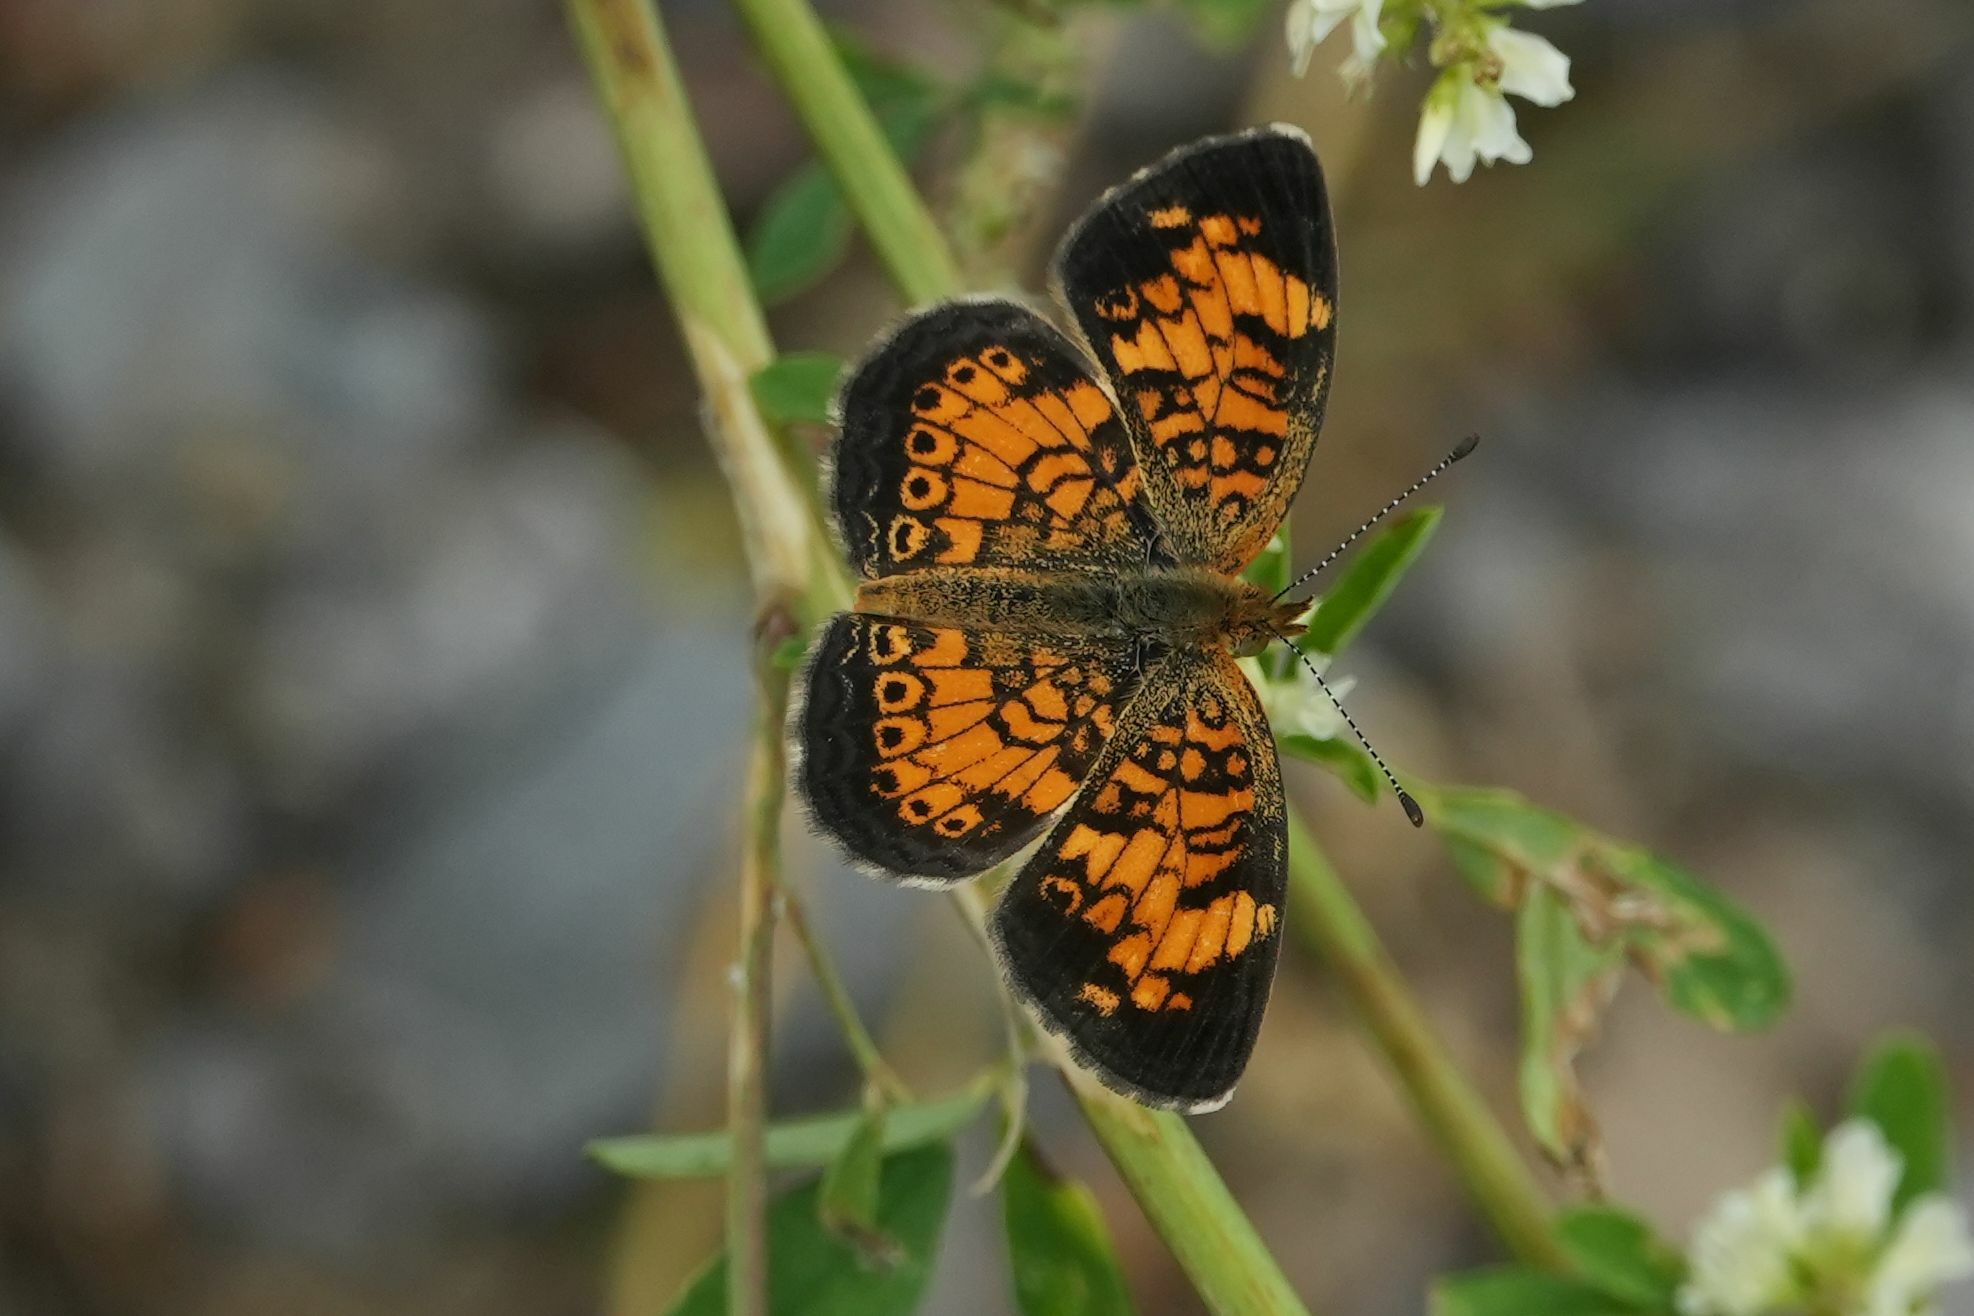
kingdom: Animalia
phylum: Arthropoda
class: Insecta
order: Lepidoptera
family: Nymphalidae
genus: Phyciodes
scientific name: Phyciodes tharos
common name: Pearl crescent
